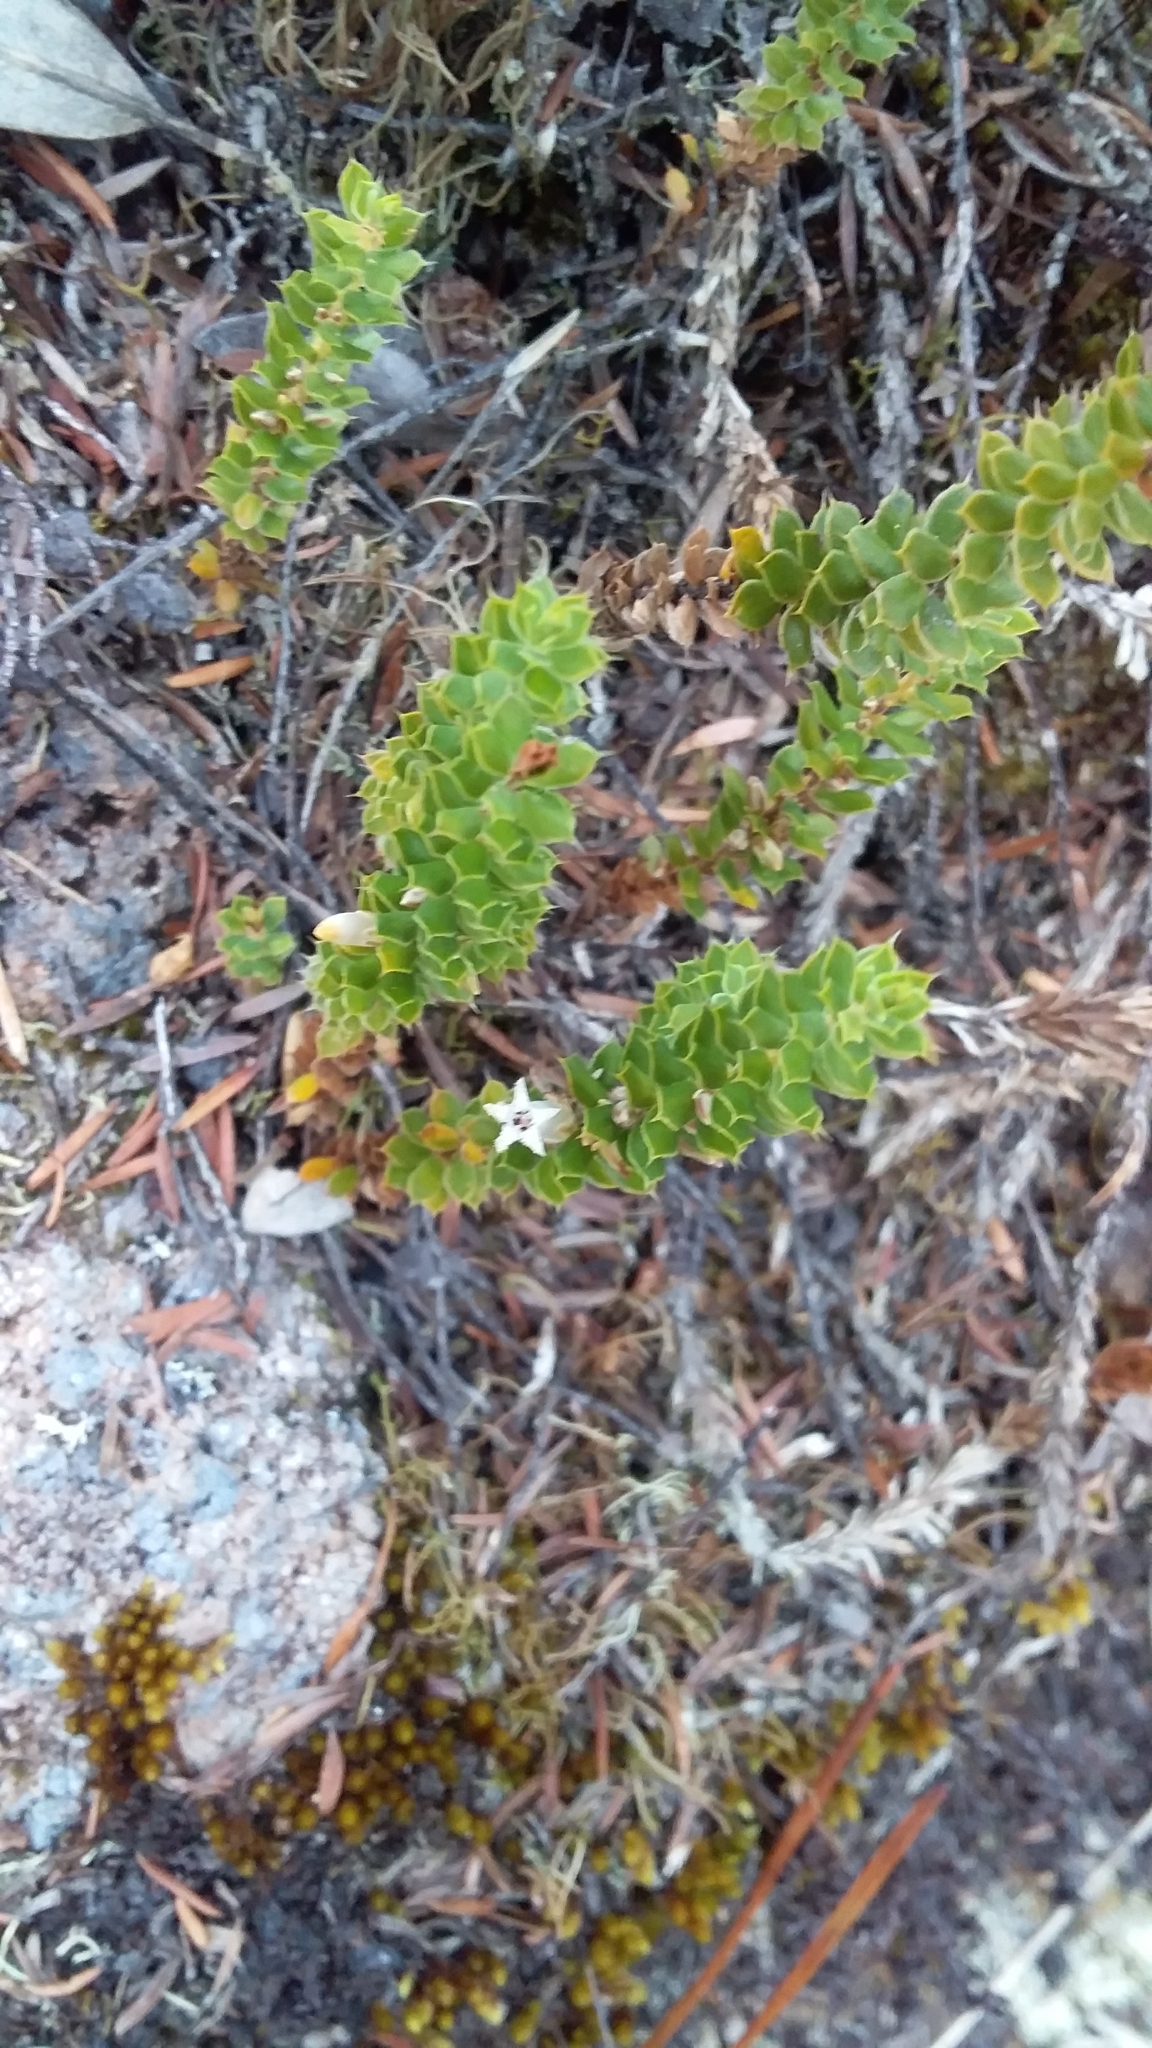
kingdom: Plantae
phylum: Tracheophyta
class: Magnoliopsida
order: Ericales
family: Ericaceae
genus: Styphelia
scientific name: Styphelia nesophila
